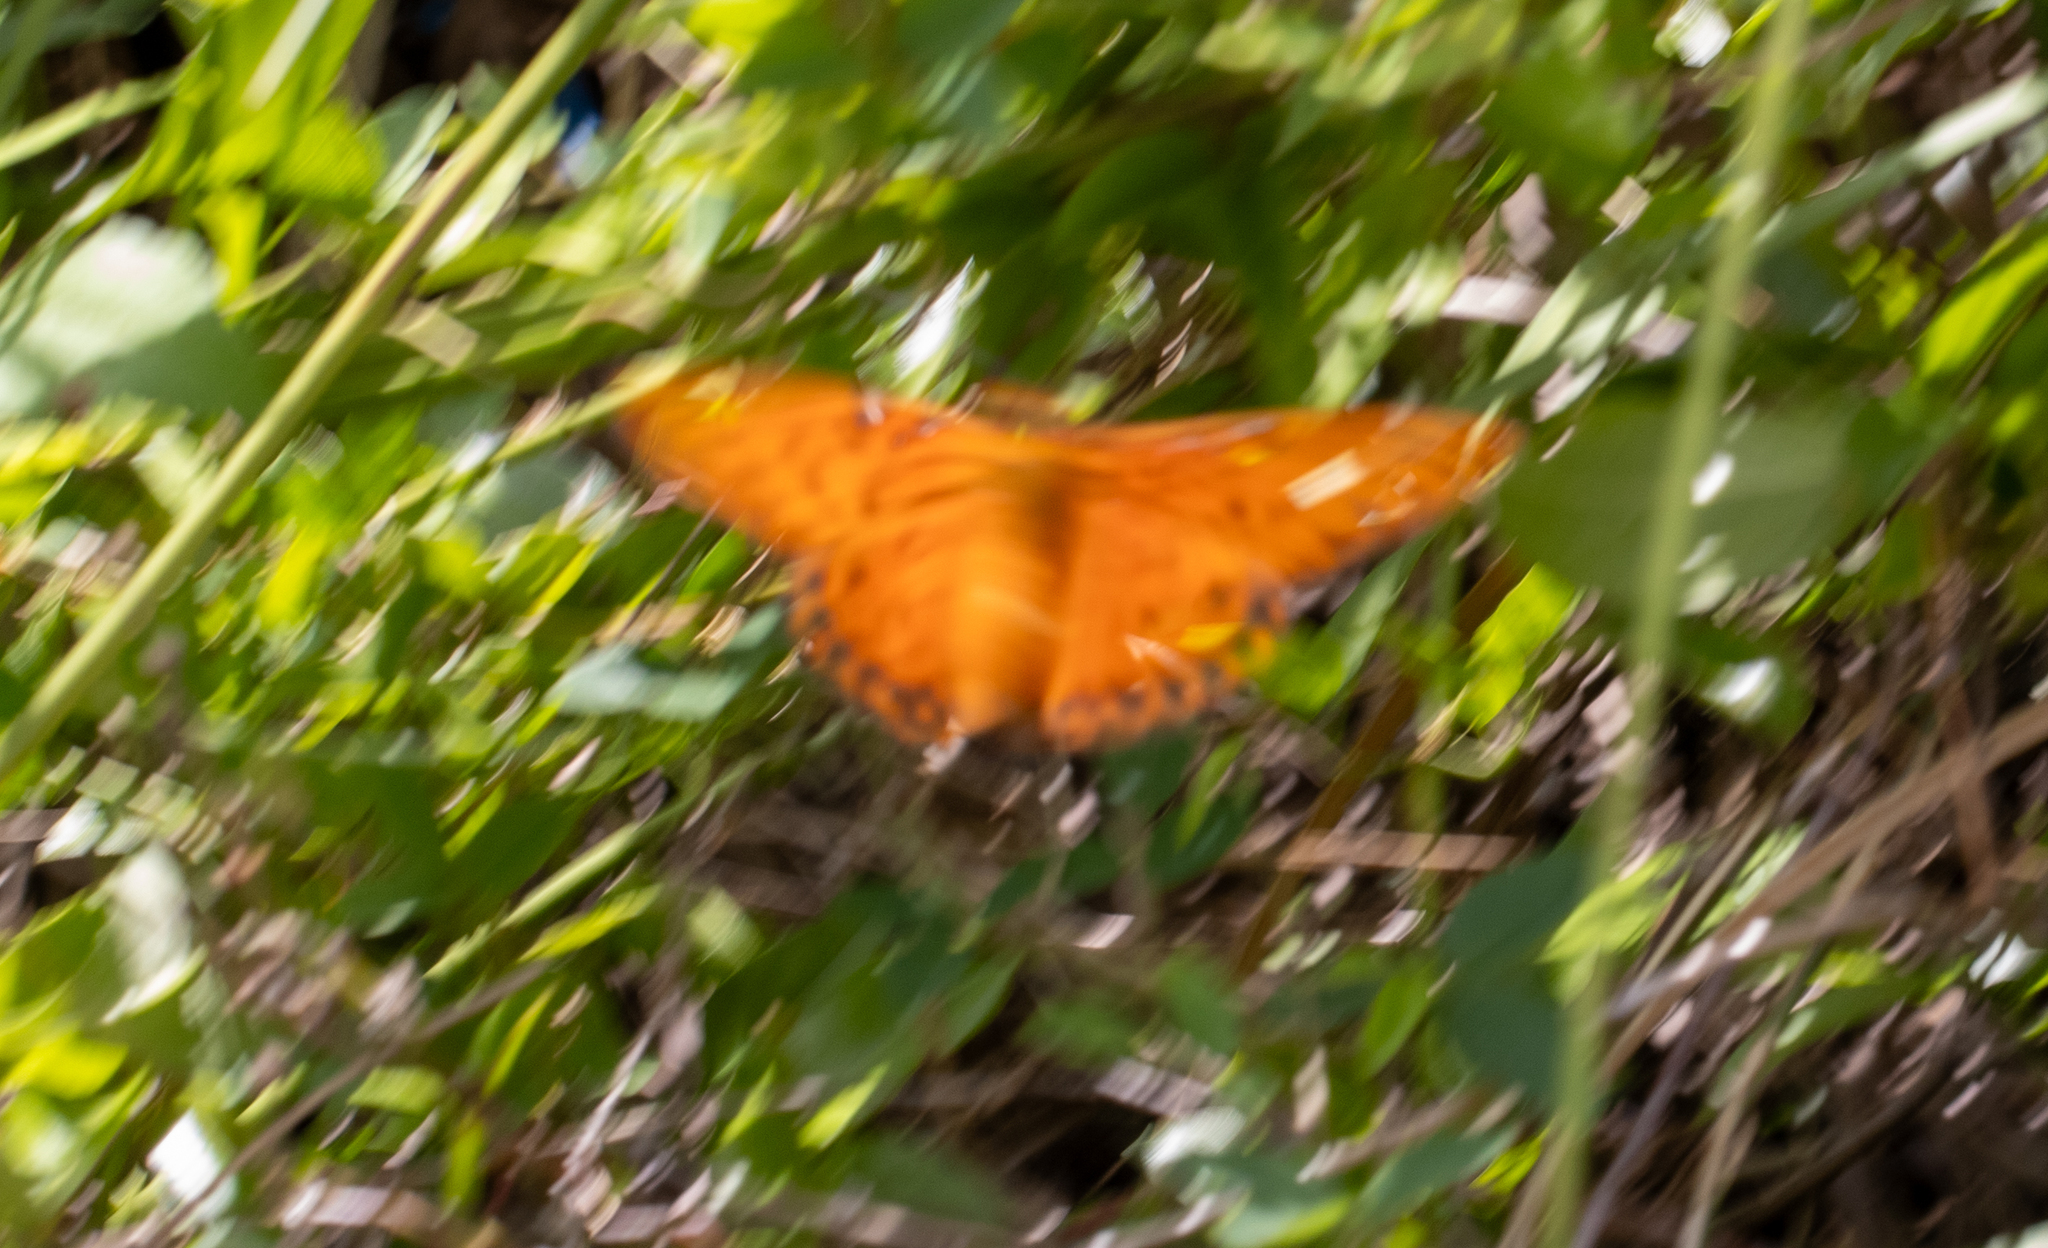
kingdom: Animalia
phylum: Arthropoda
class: Insecta
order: Lepidoptera
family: Nymphalidae
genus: Dione
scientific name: Dione vanillae
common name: Gulf fritillary
